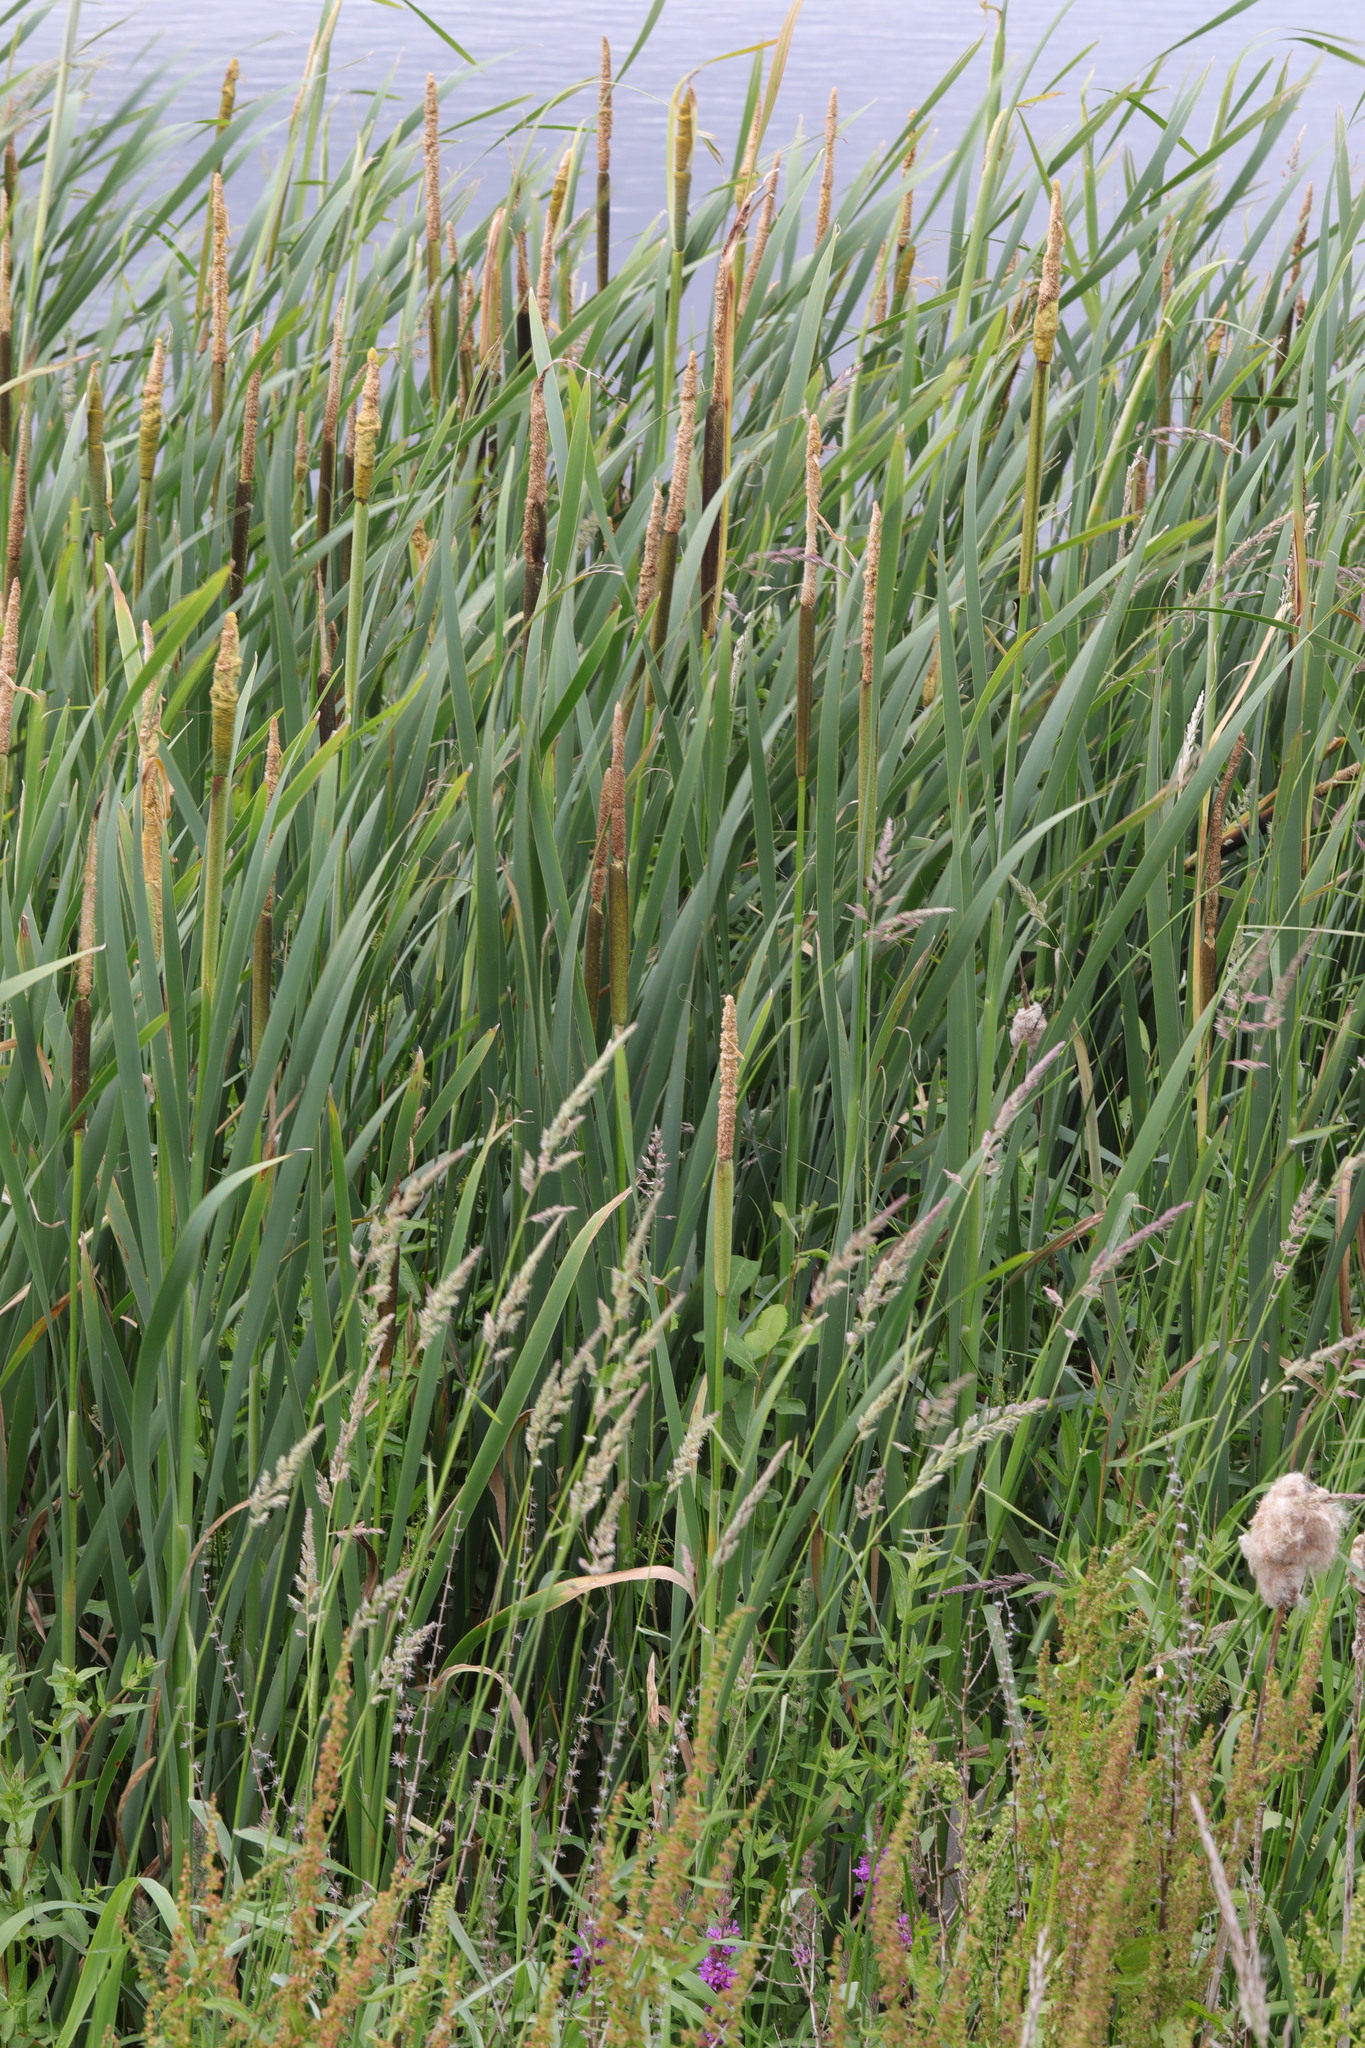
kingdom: Plantae
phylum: Tracheophyta
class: Liliopsida
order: Poales
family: Typhaceae
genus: Typha
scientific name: Typha angustifolia
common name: Lesser bulrush
